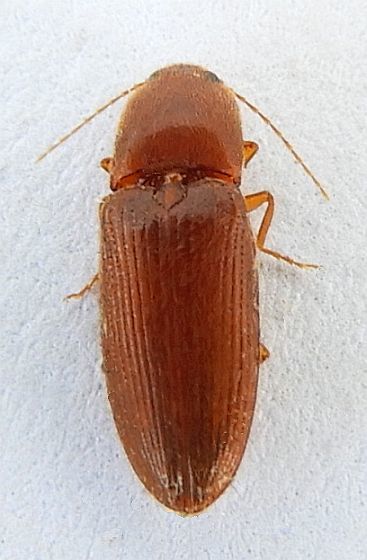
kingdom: Animalia
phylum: Arthropoda
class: Insecta
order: Coleoptera
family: Elateridae
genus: Esthesopus
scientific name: Esthesopus
